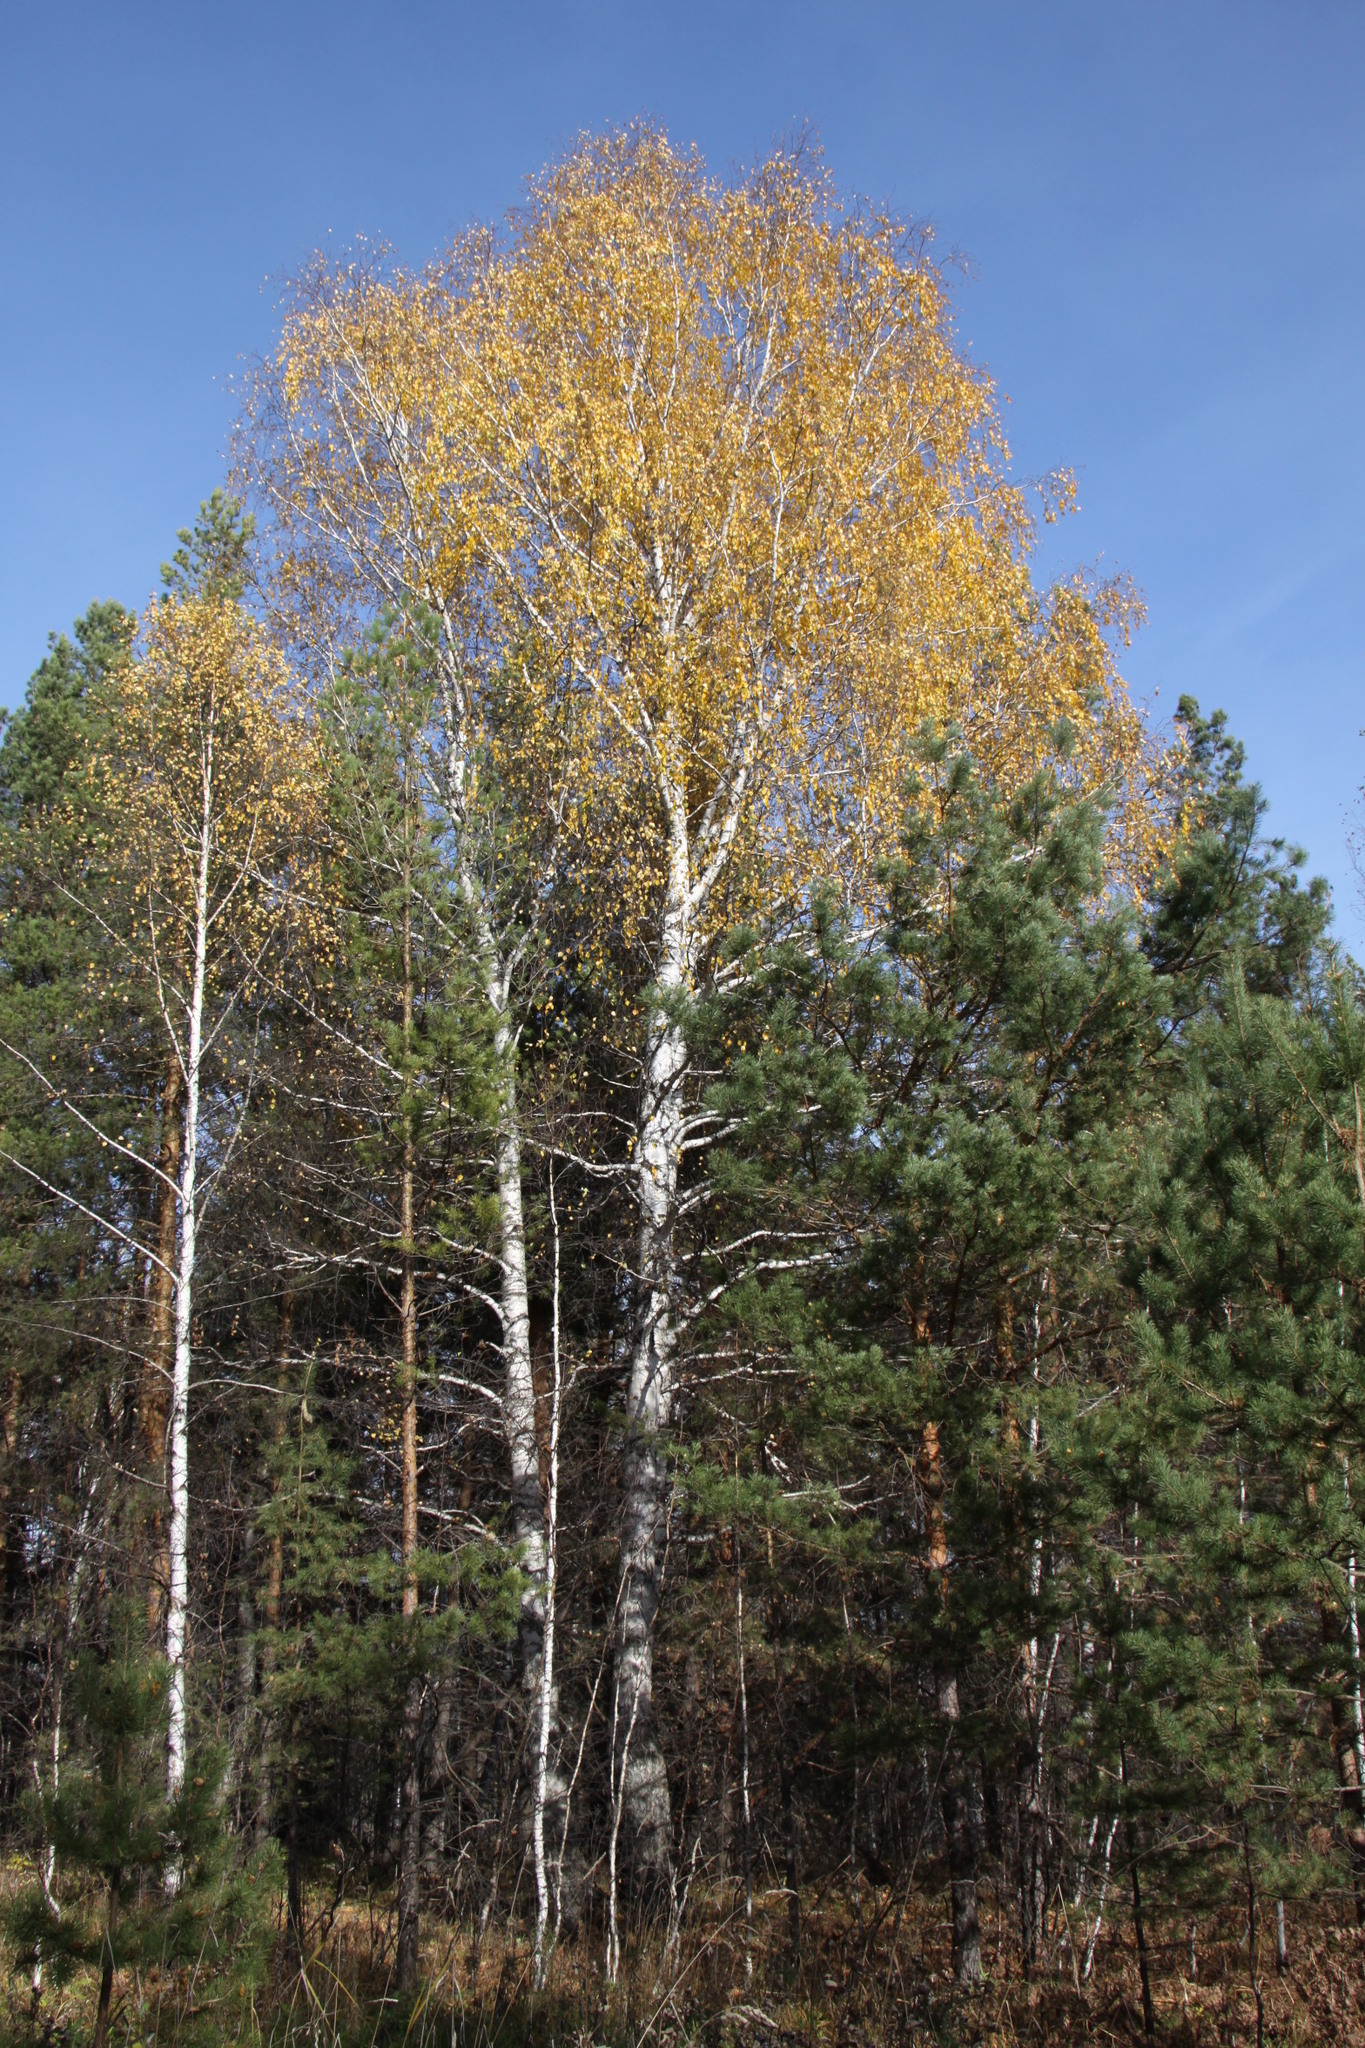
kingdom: Plantae
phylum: Tracheophyta
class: Magnoliopsida
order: Fagales
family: Betulaceae
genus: Betula
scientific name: Betula pendula
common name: Silver birch
